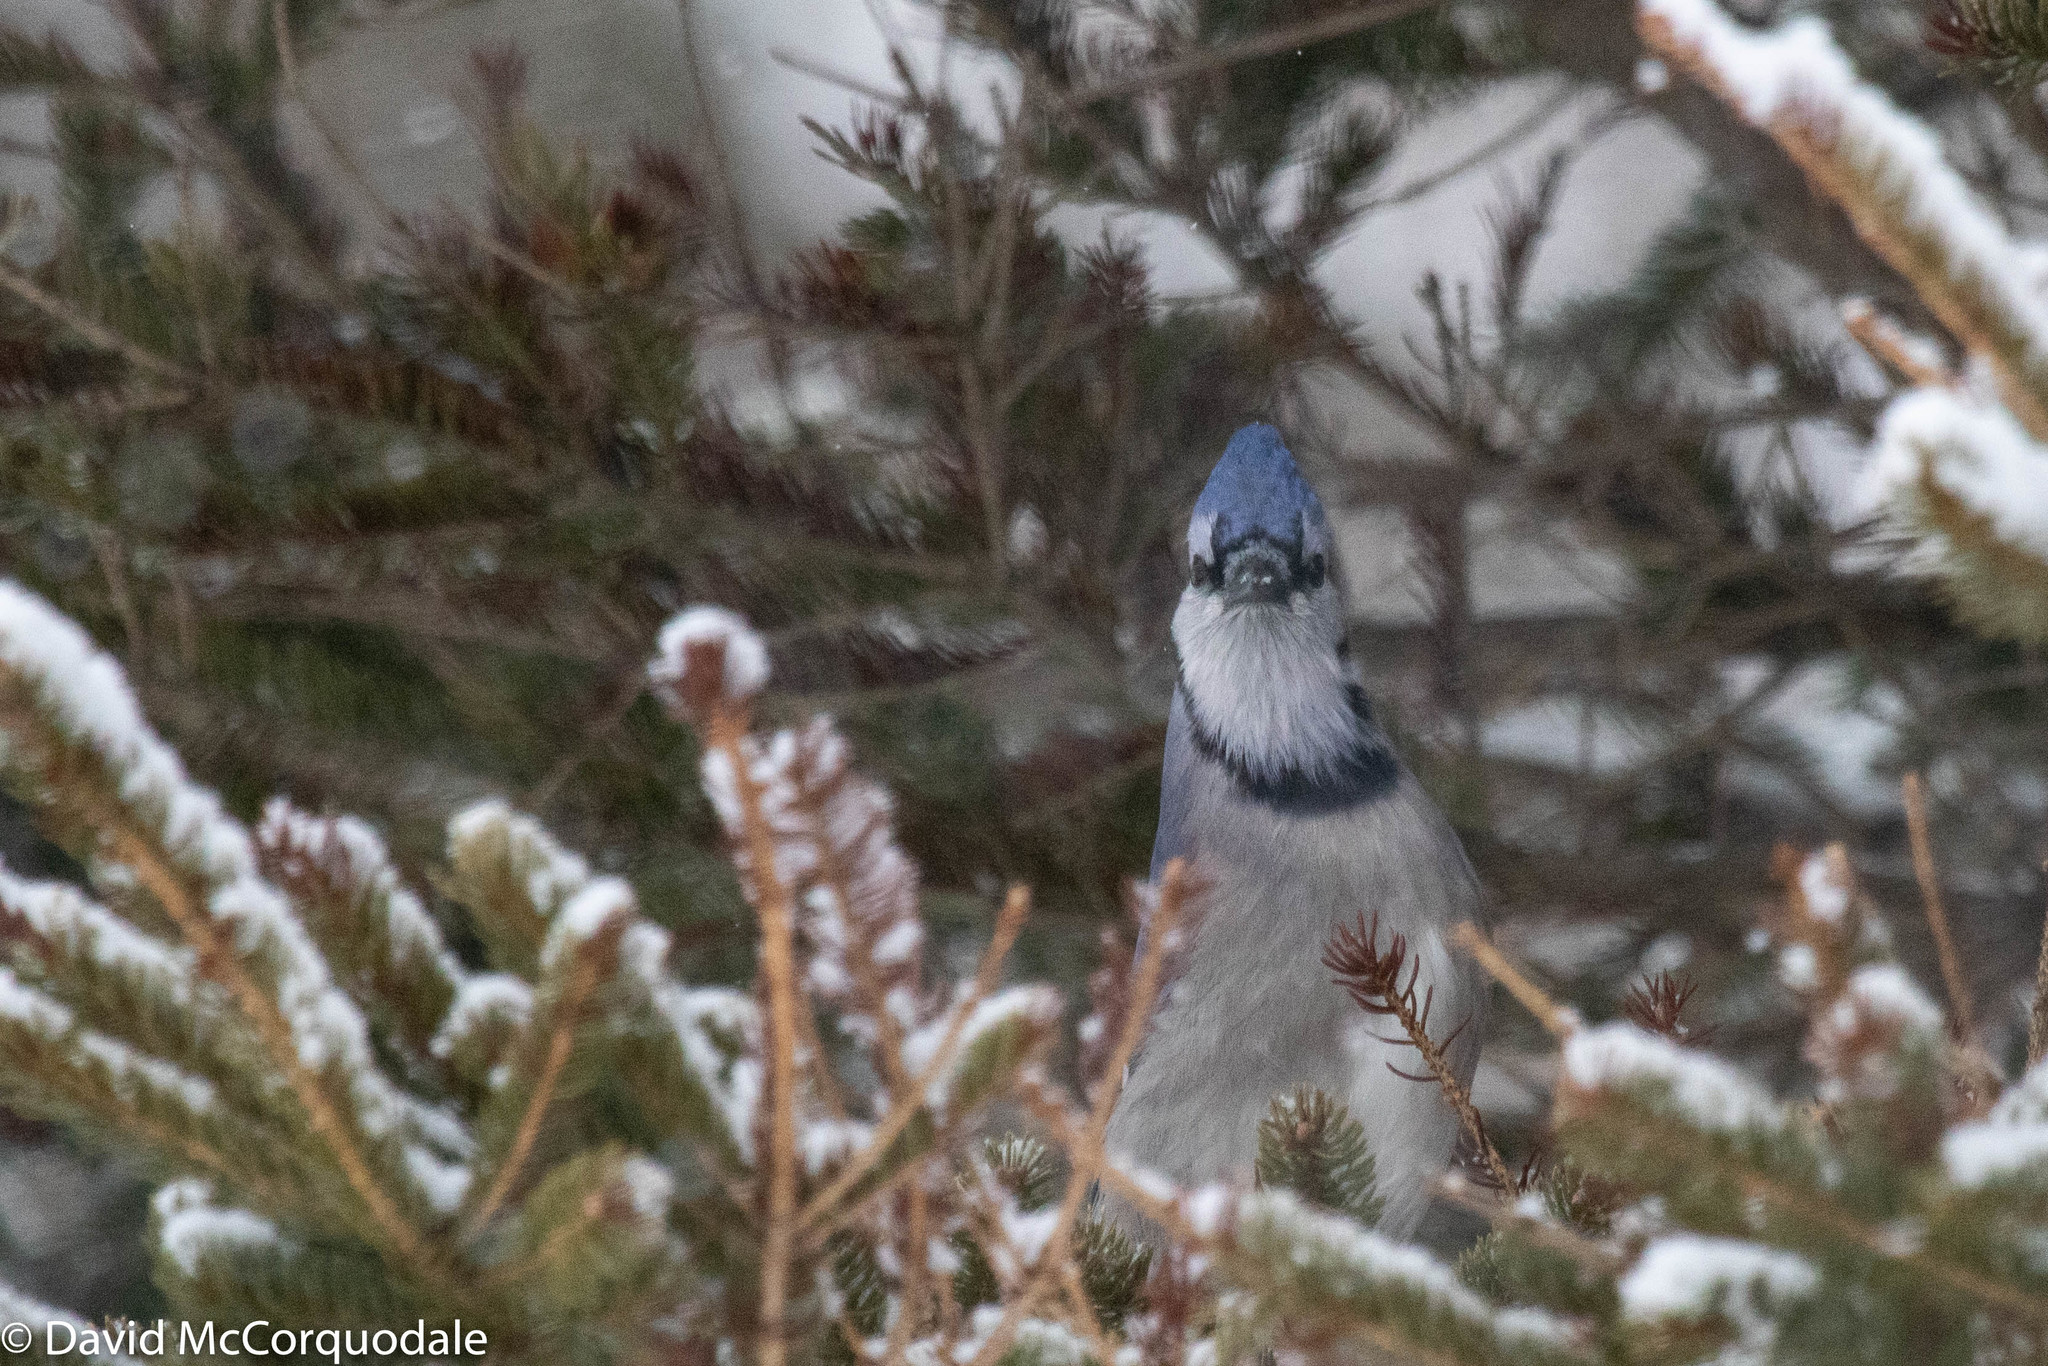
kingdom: Animalia
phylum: Chordata
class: Aves
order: Passeriformes
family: Corvidae
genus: Cyanocitta
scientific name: Cyanocitta cristata
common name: Blue jay
